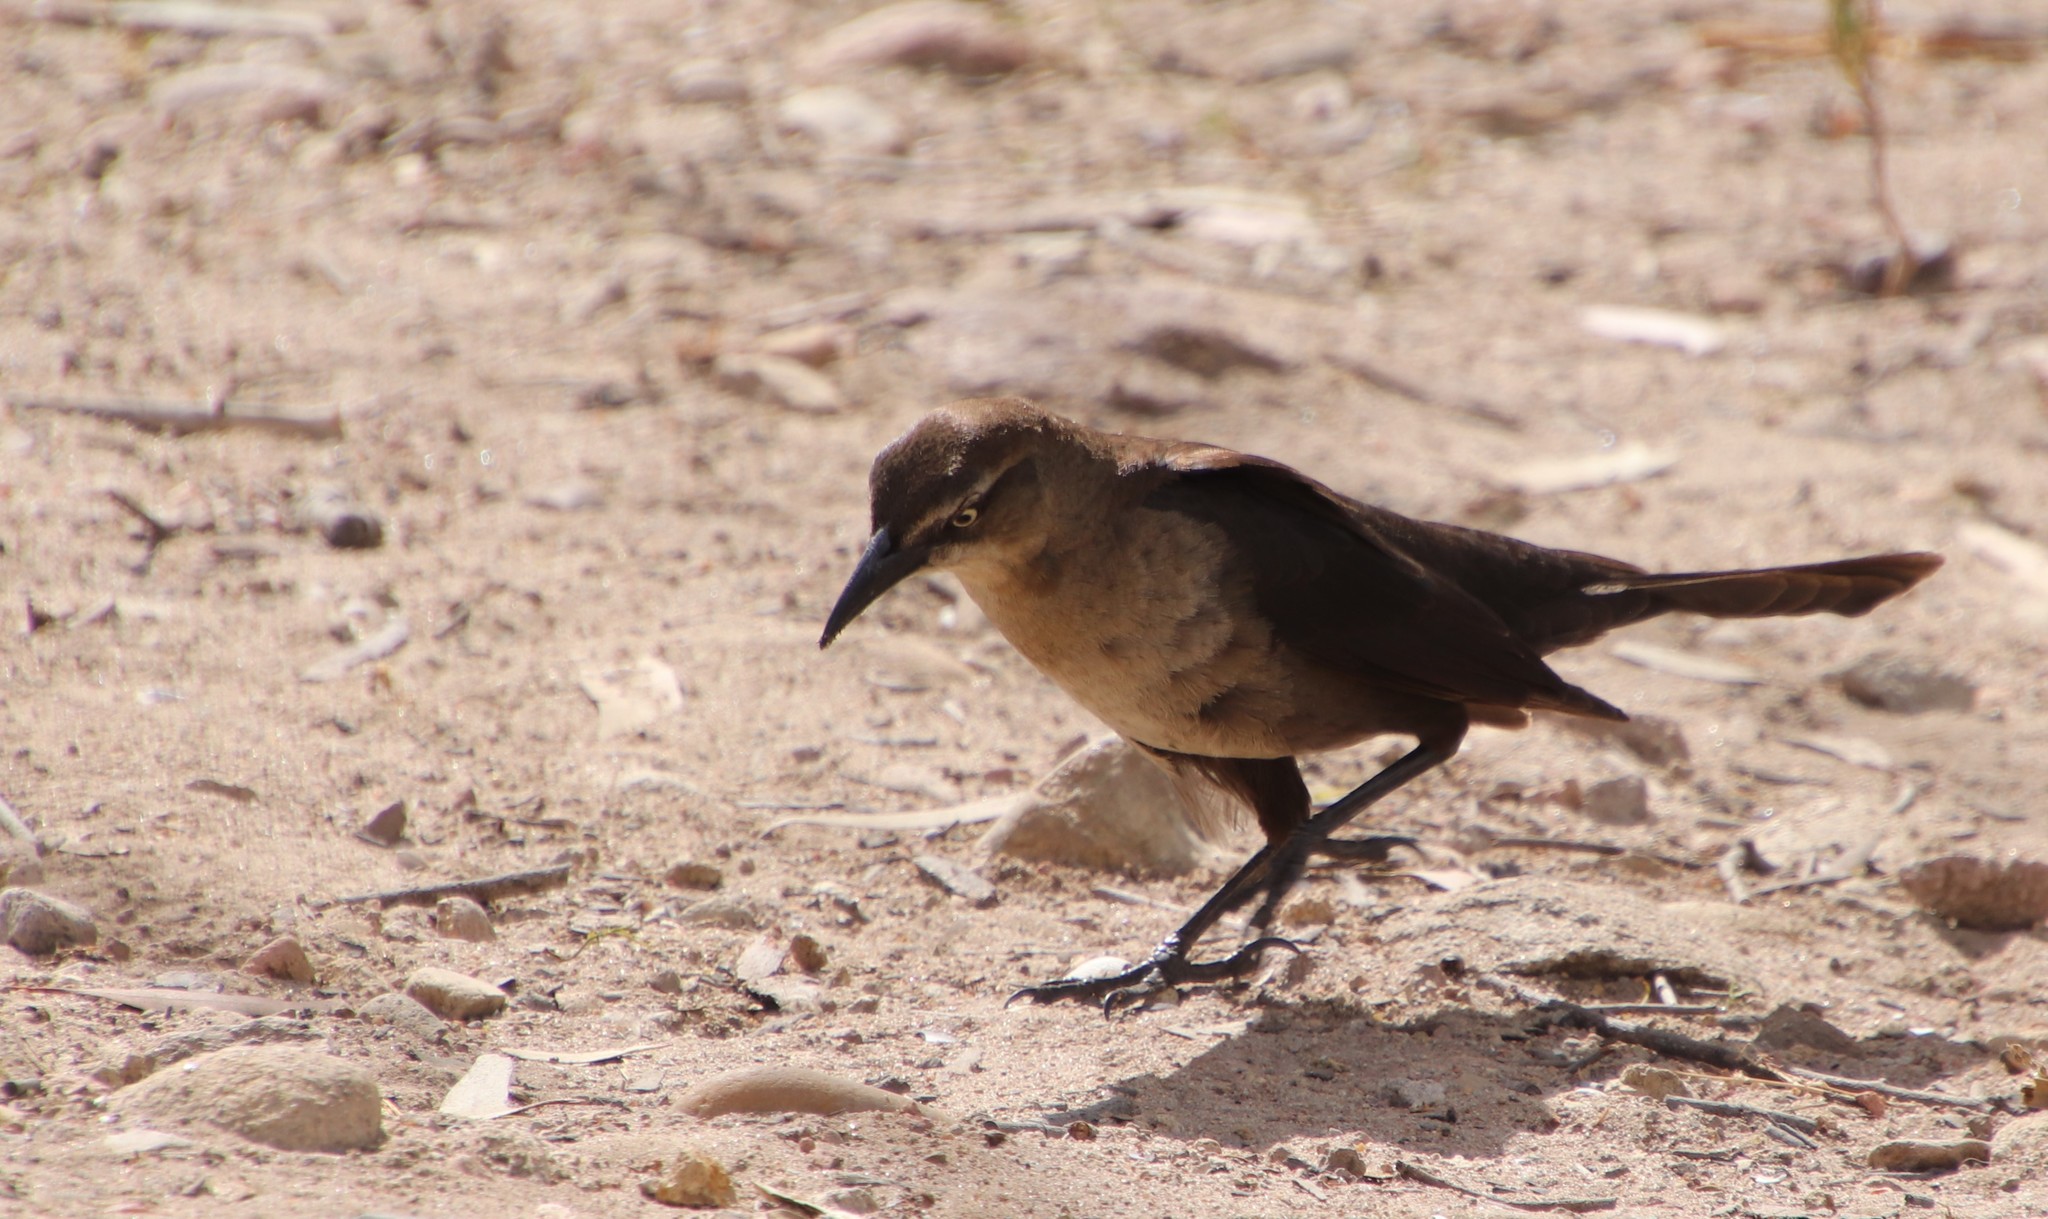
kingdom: Animalia
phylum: Chordata
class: Aves
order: Passeriformes
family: Icteridae
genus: Quiscalus
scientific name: Quiscalus mexicanus
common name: Great-tailed grackle
